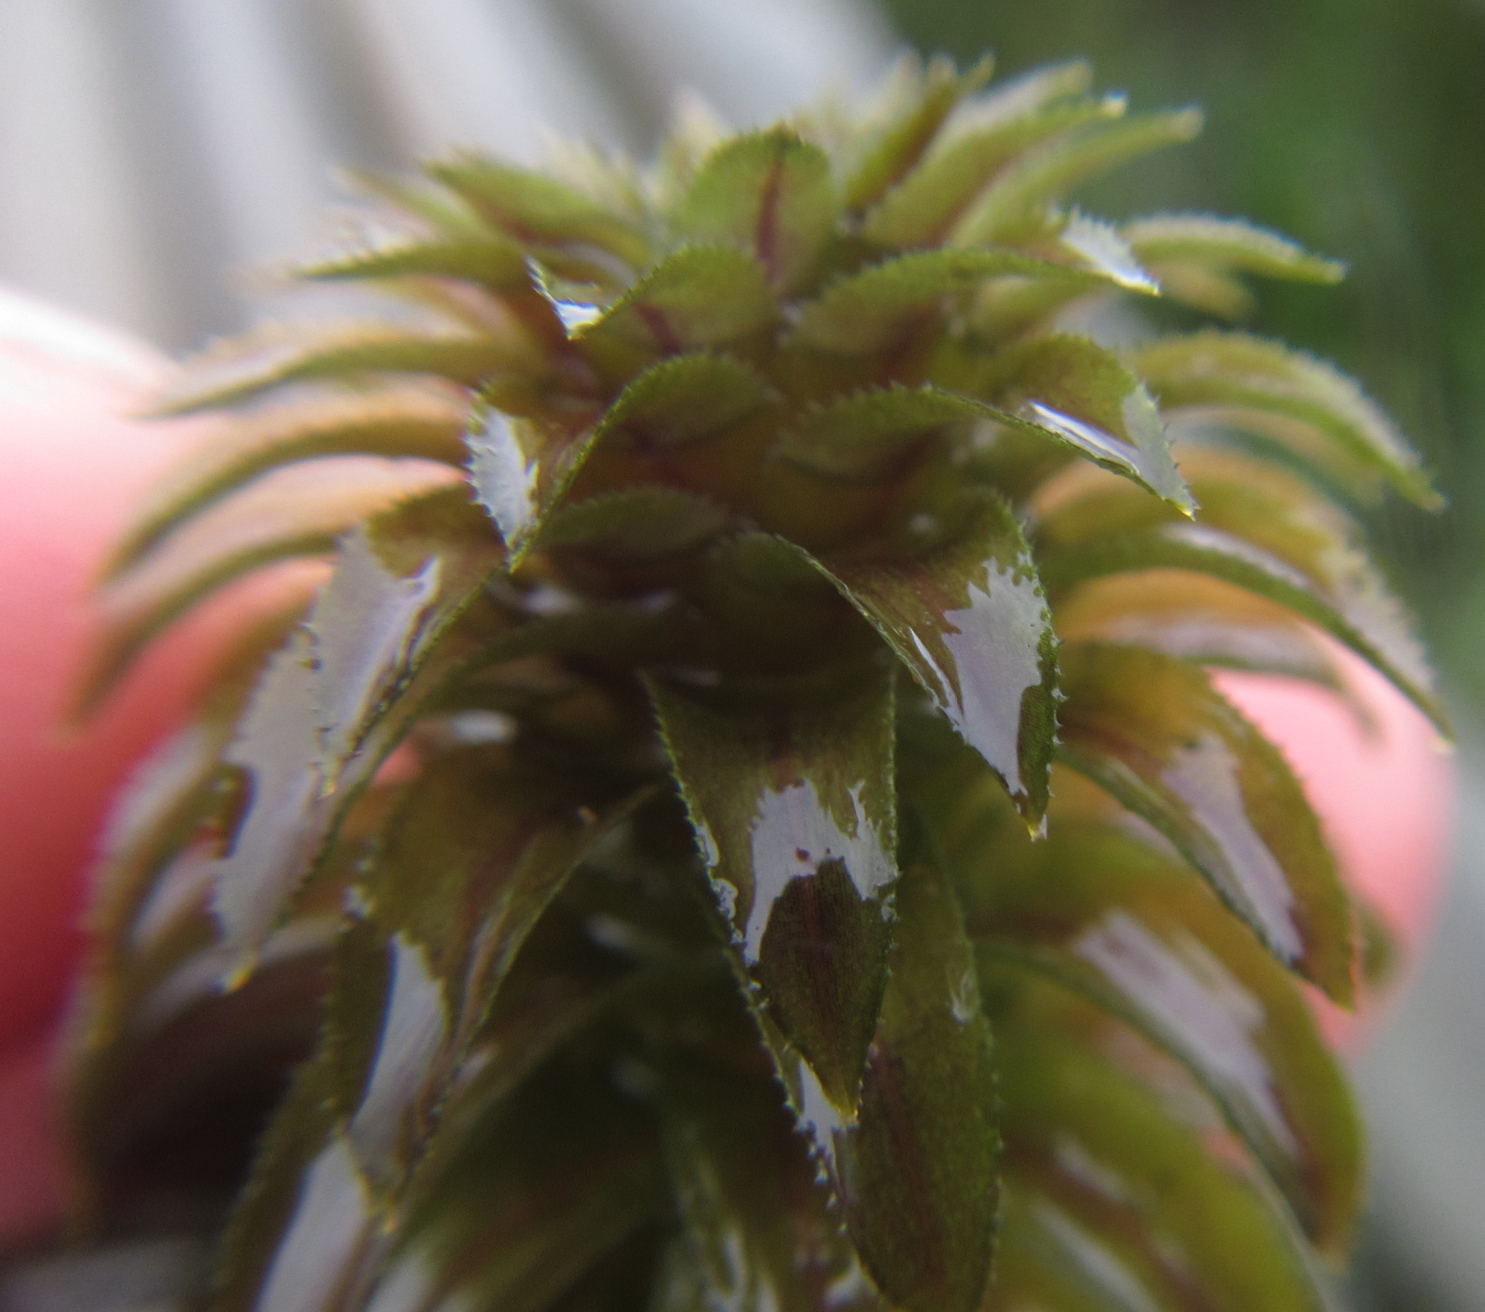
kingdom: Plantae
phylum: Tracheophyta
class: Liliopsida
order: Alismatales
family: Hydrocharitaceae
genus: Lagarosiphon
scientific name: Lagarosiphon ilicifolius
